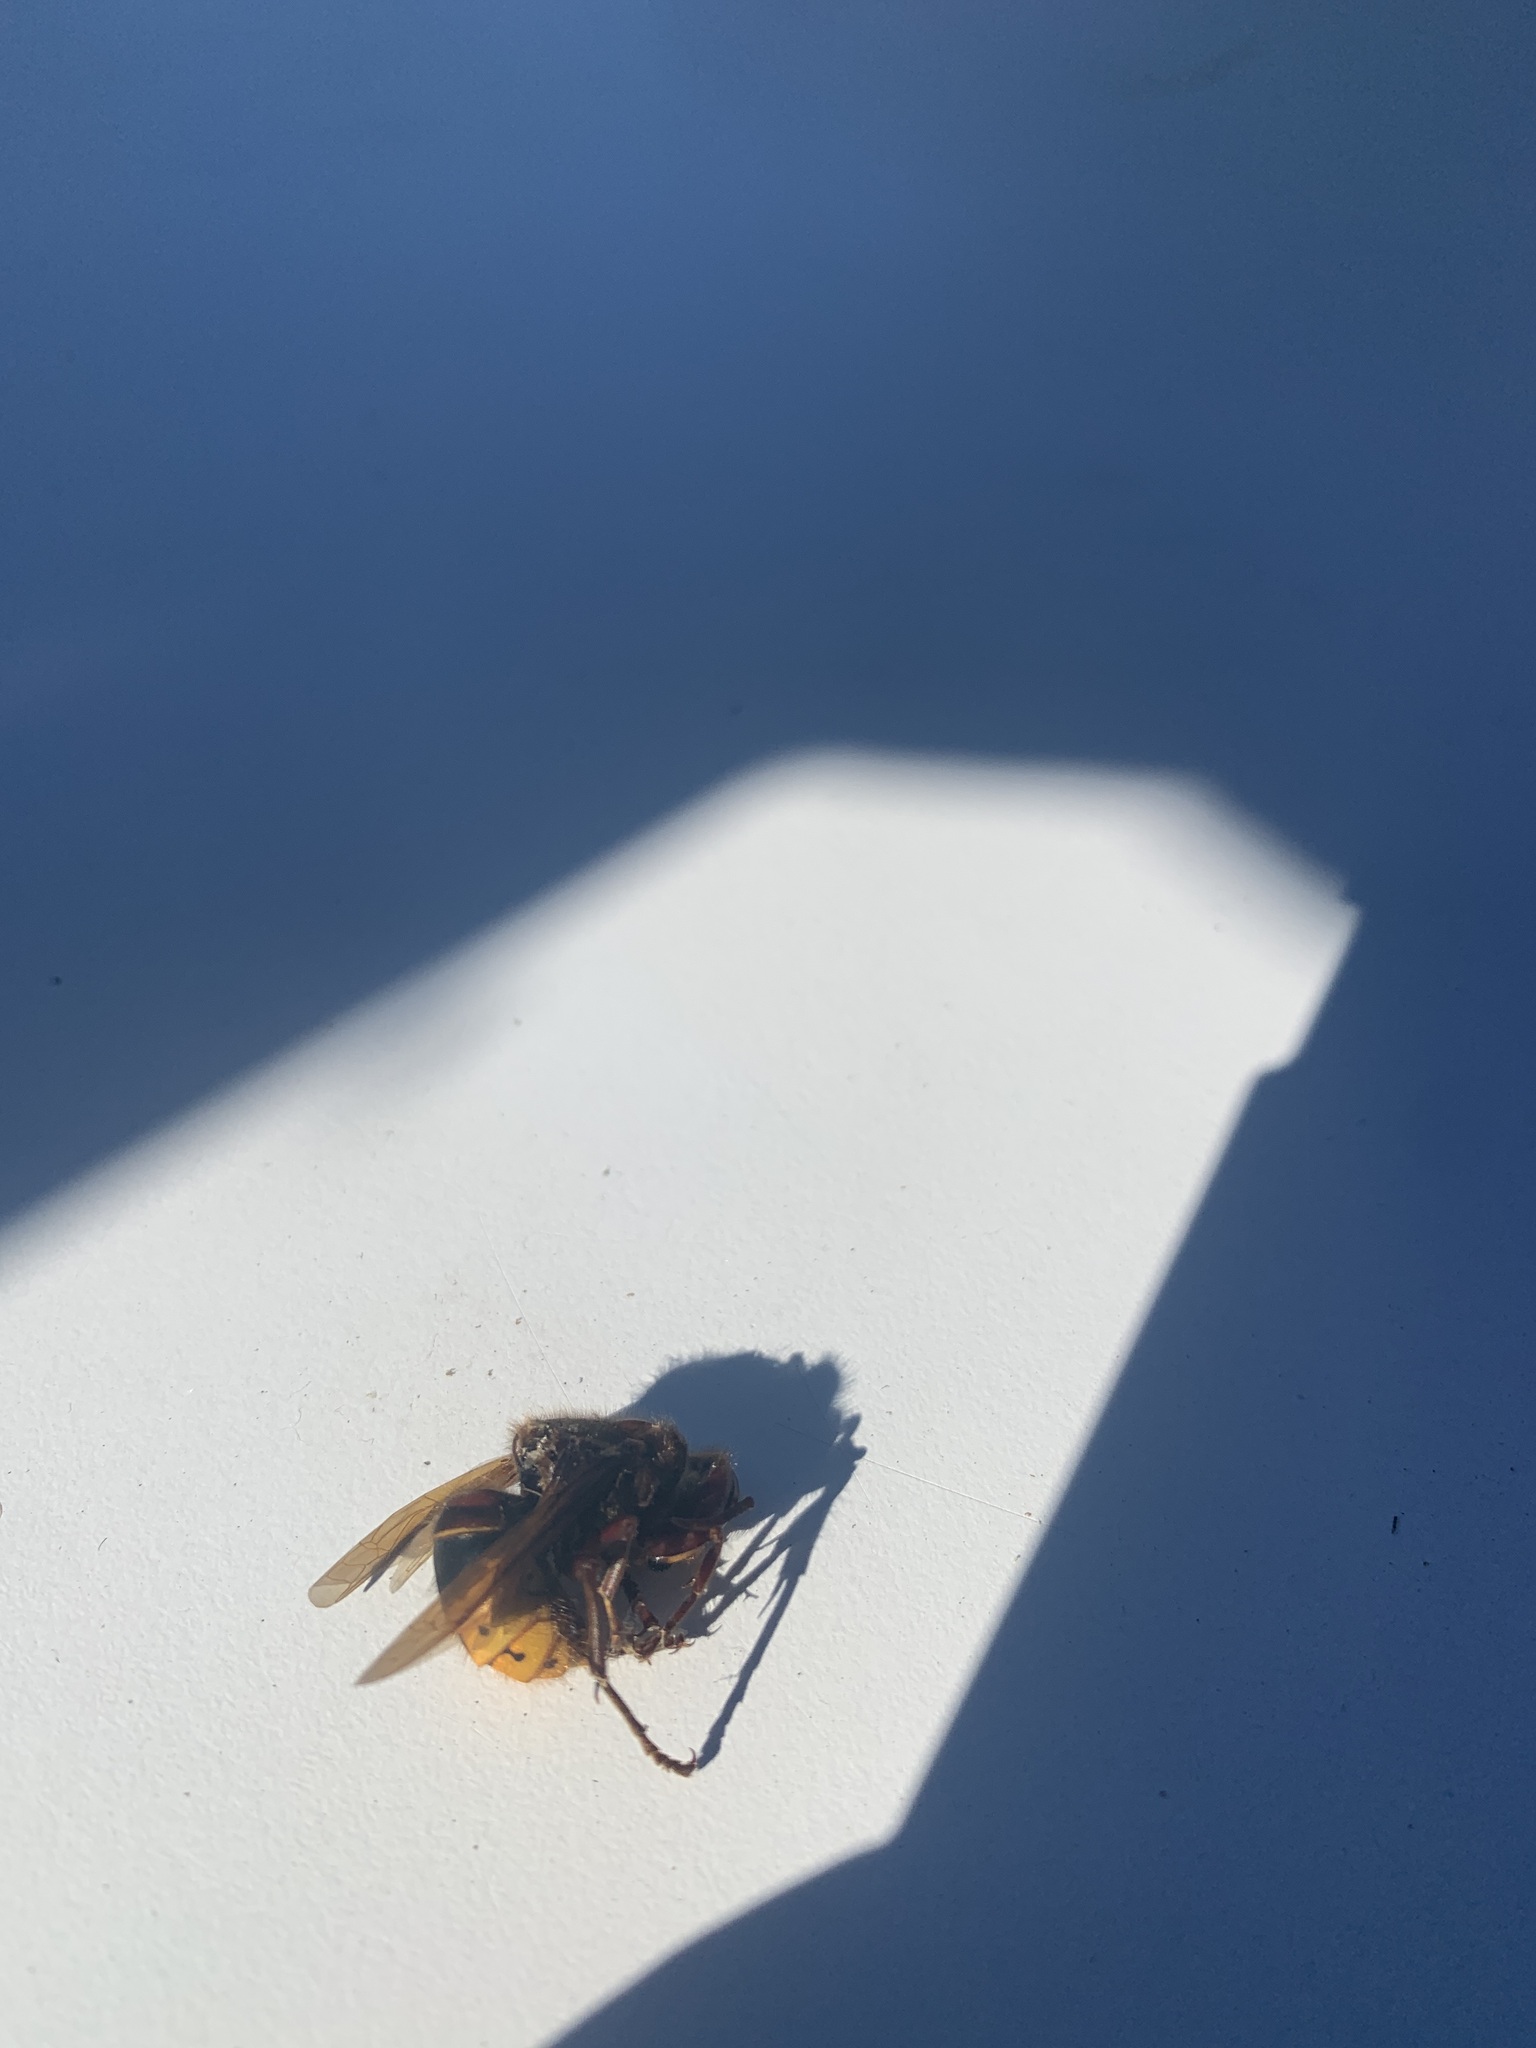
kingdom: Animalia
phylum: Arthropoda
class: Insecta
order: Hymenoptera
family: Vespidae
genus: Vespa
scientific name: Vespa crabro
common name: Hornet
